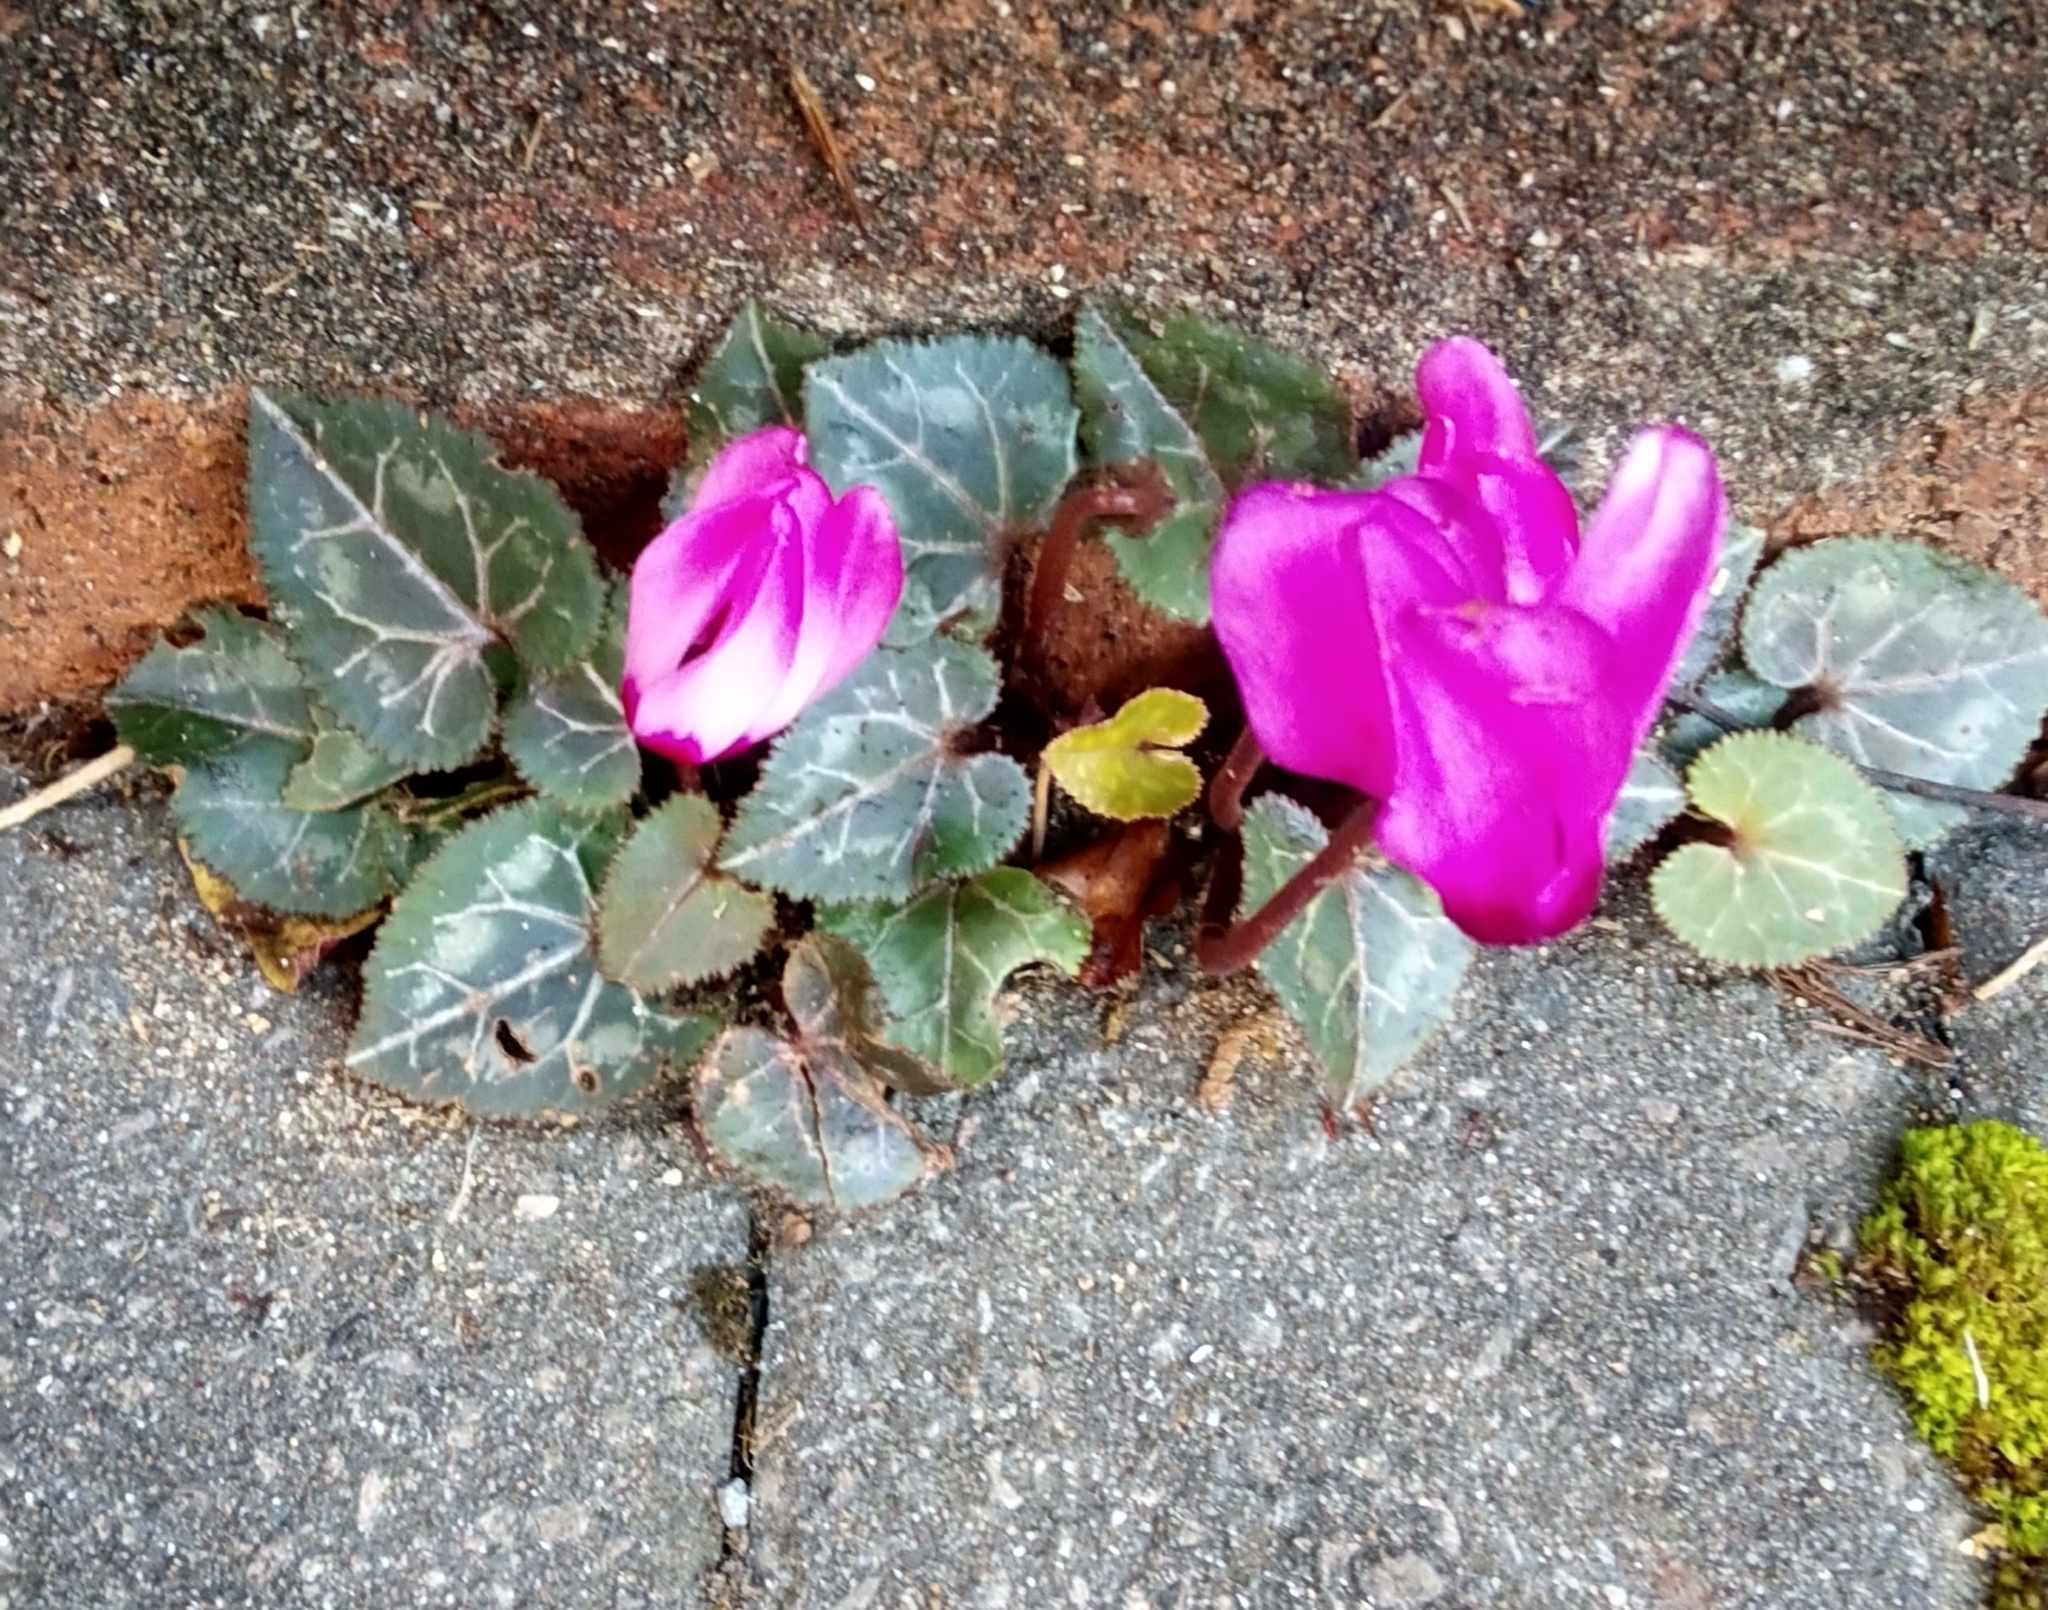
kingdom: Plantae
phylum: Tracheophyta
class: Magnoliopsida
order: Ericales
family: Primulaceae
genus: Cyclamen
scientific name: Cyclamen persicum
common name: Florist's cyclamen
